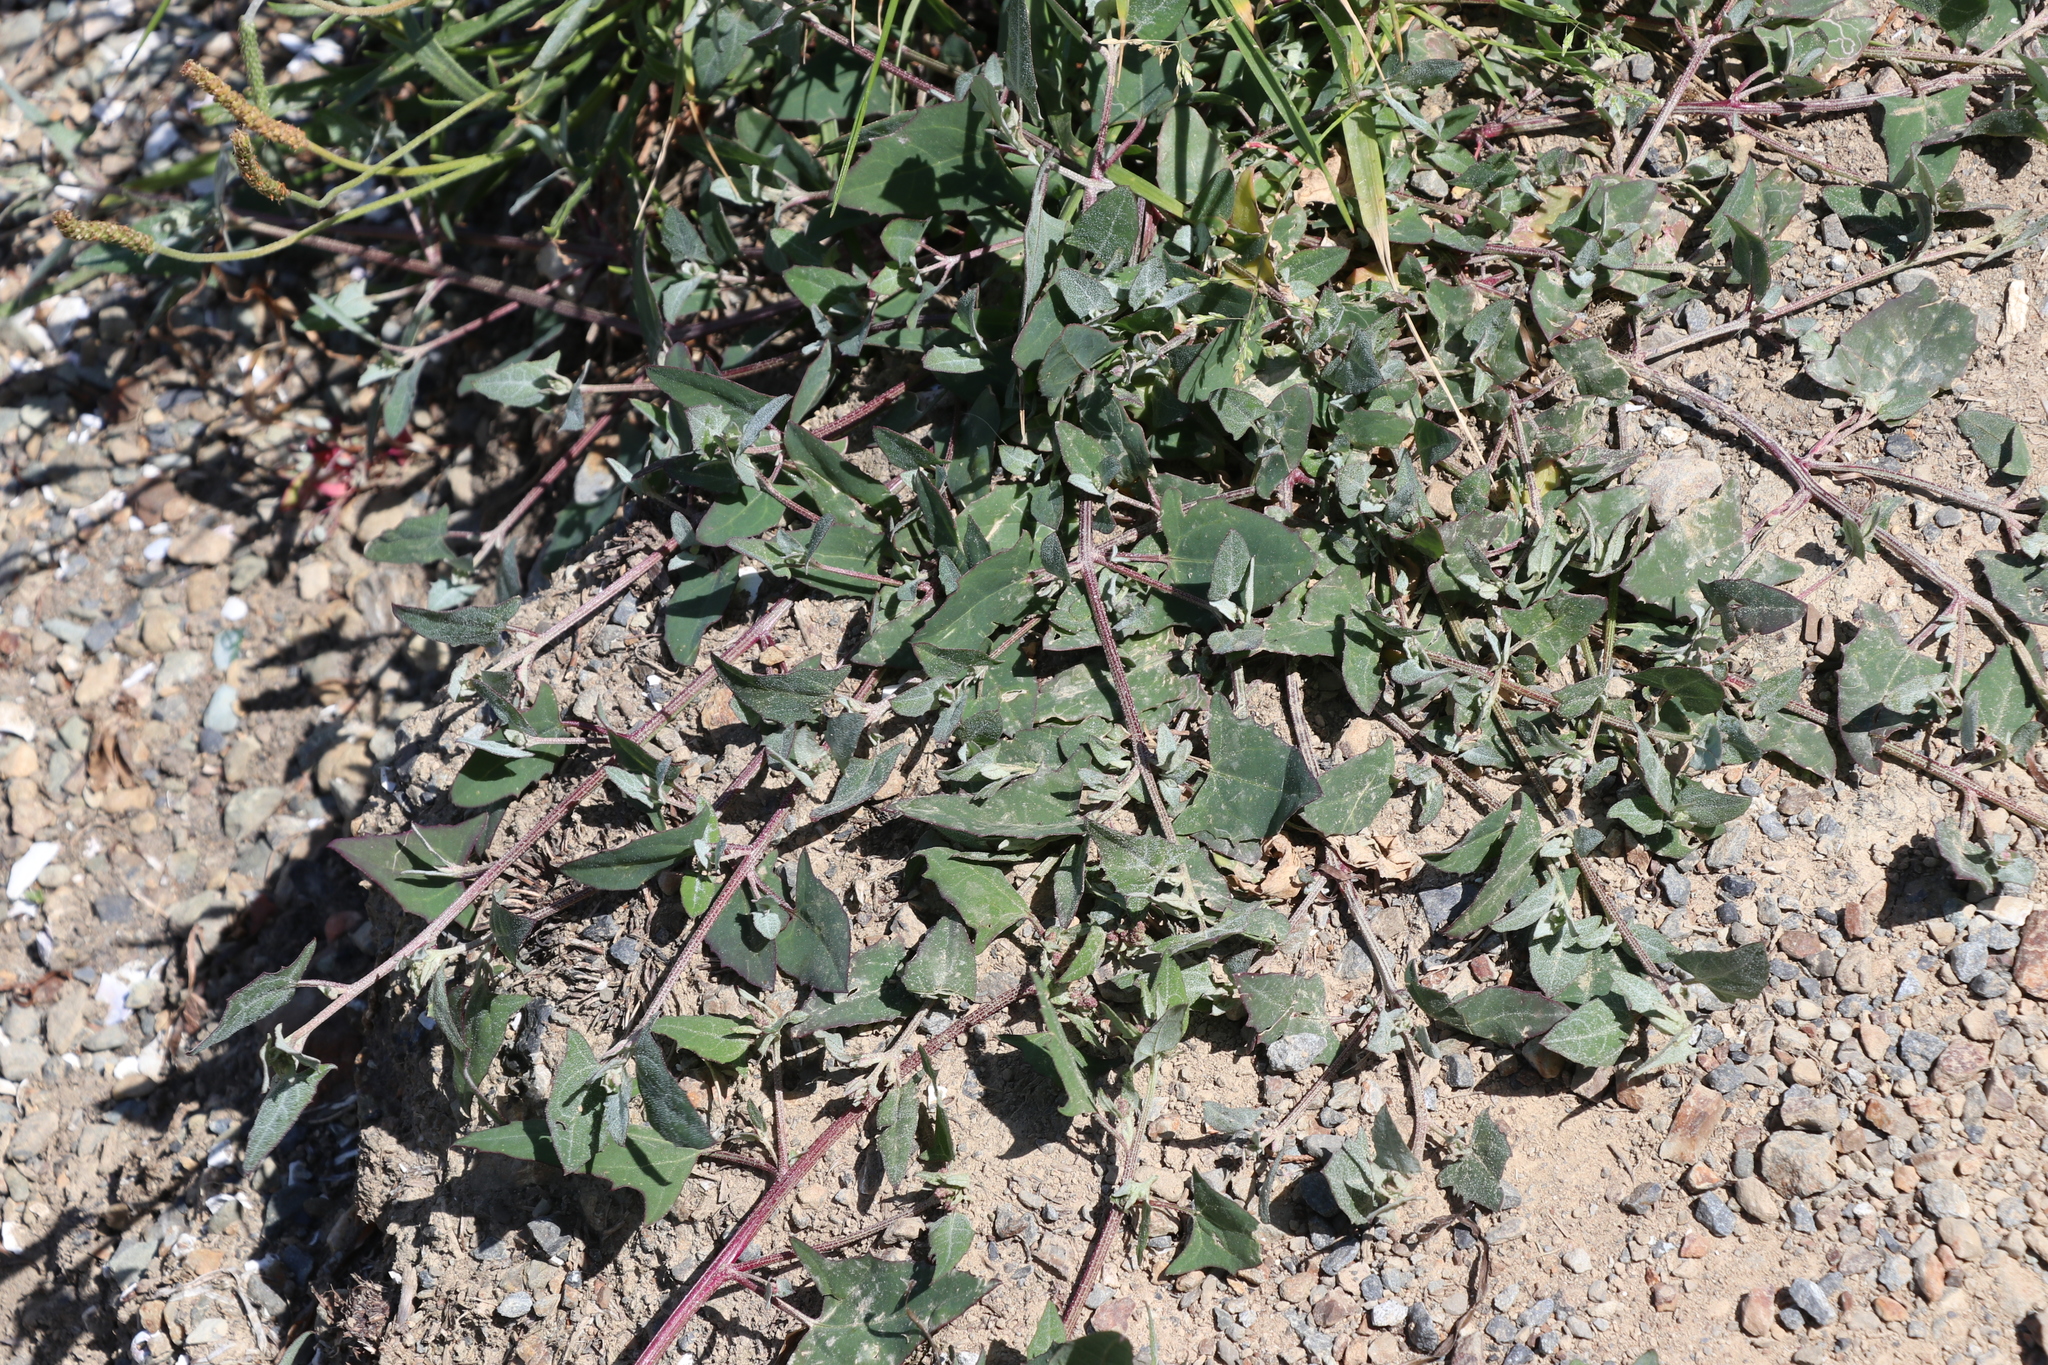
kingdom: Plantae
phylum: Tracheophyta
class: Magnoliopsida
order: Caryophyllales
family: Amaranthaceae
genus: Atriplex
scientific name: Atriplex prostrata
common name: Spear-leaved orache
